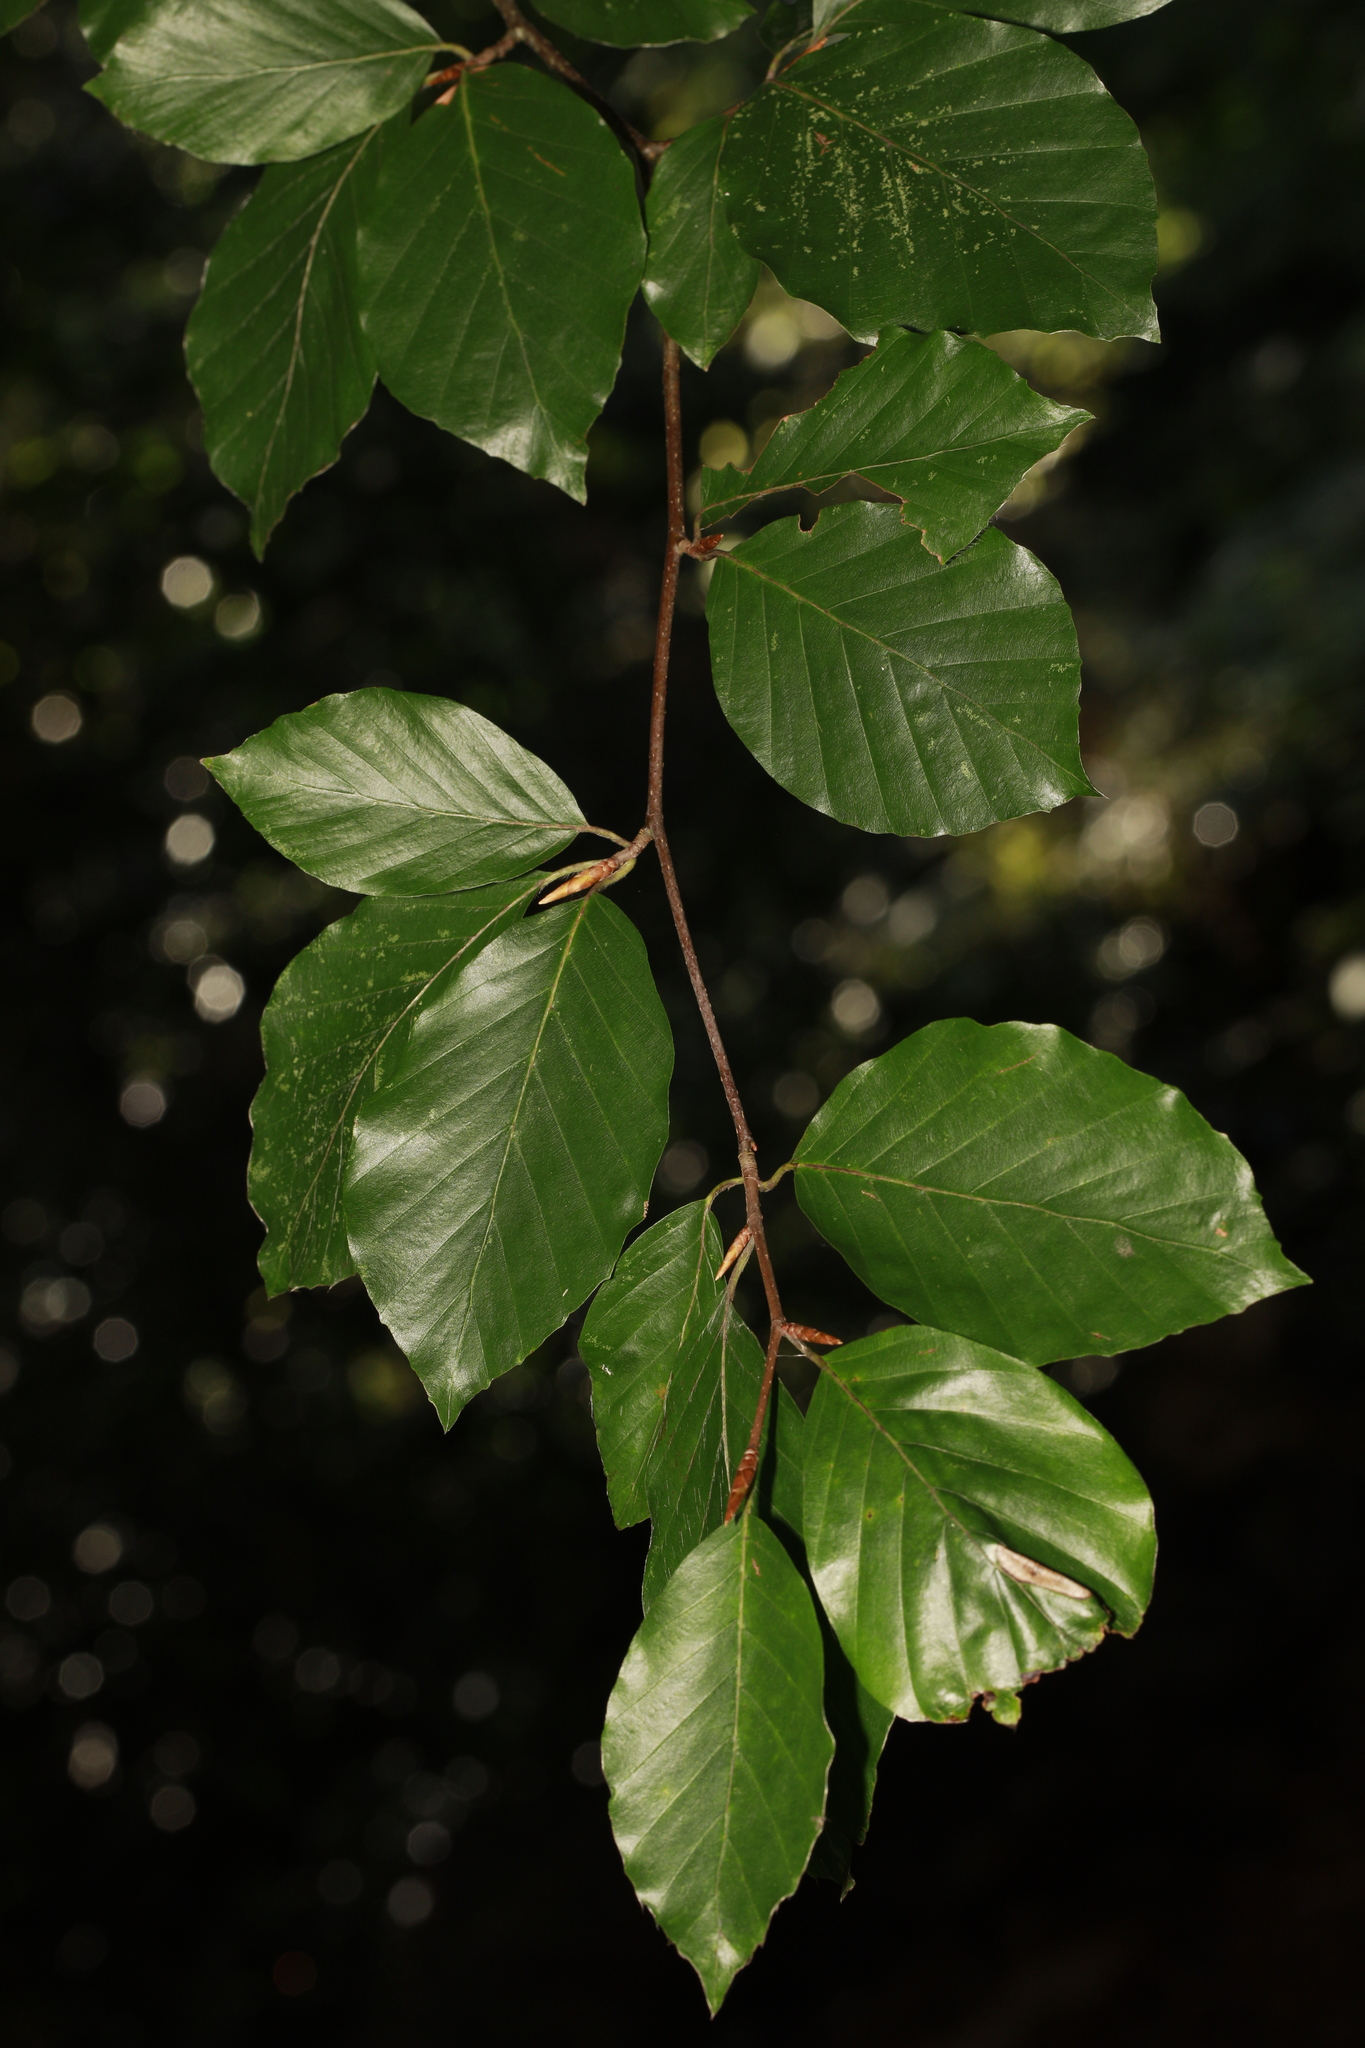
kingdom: Plantae
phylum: Tracheophyta
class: Magnoliopsida
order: Fagales
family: Fagaceae
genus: Fagus
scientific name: Fagus sylvatica
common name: Beech
